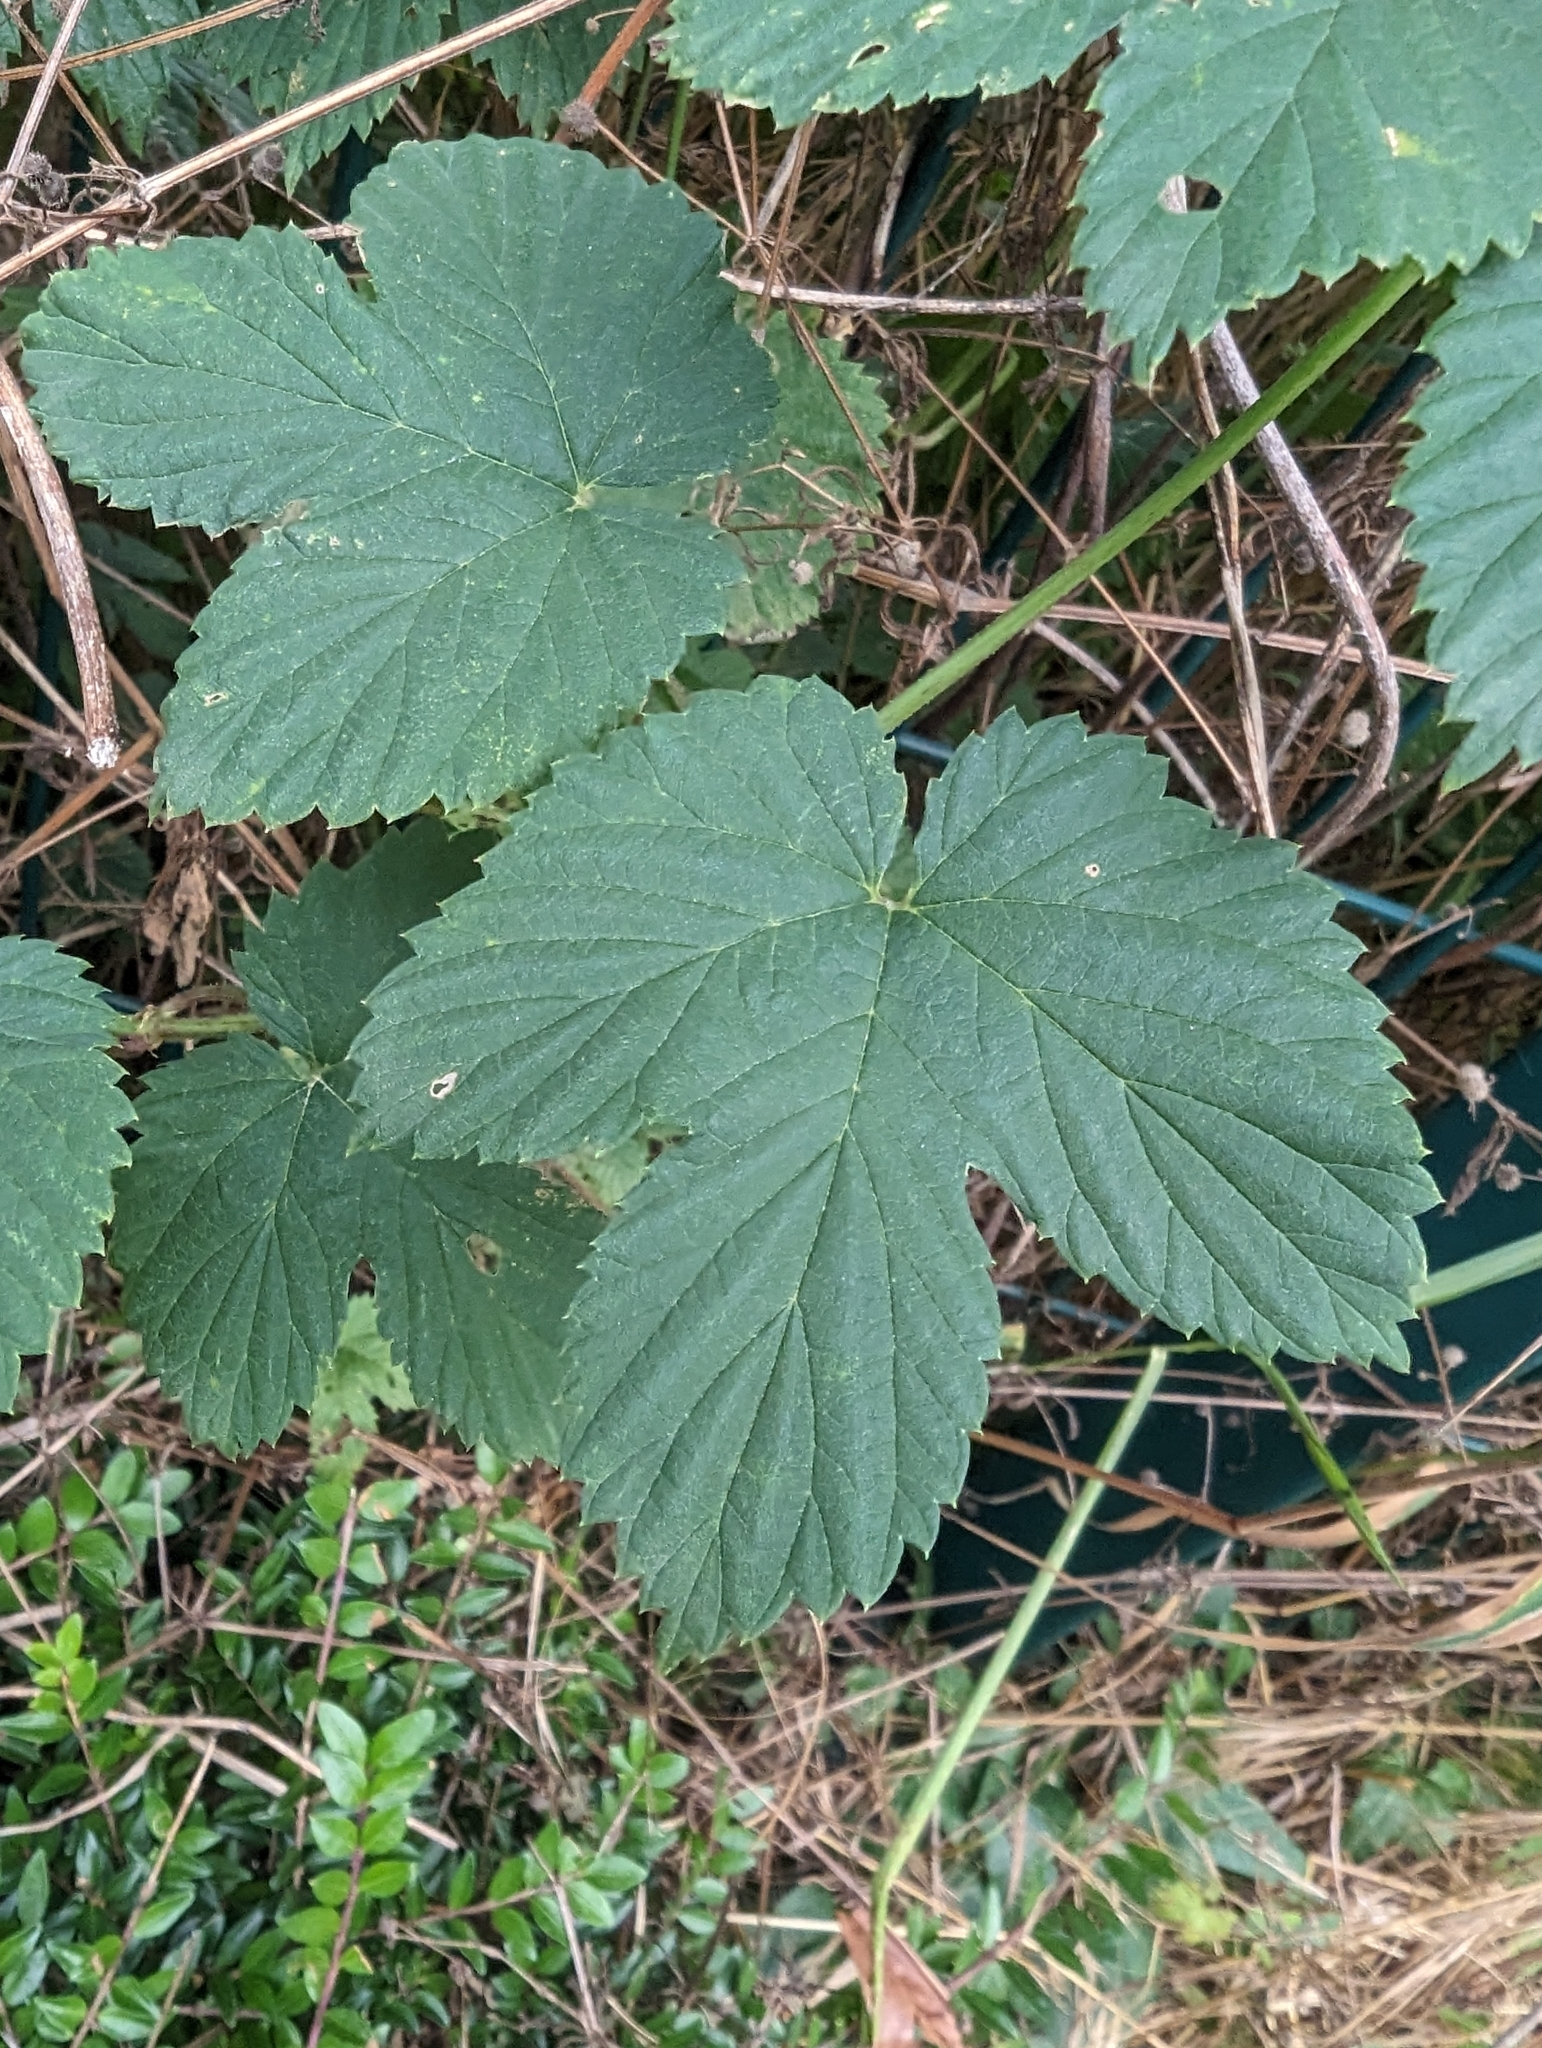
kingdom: Plantae
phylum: Tracheophyta
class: Magnoliopsida
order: Rosales
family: Cannabaceae
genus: Humulus
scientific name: Humulus lupulus
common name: Hop
